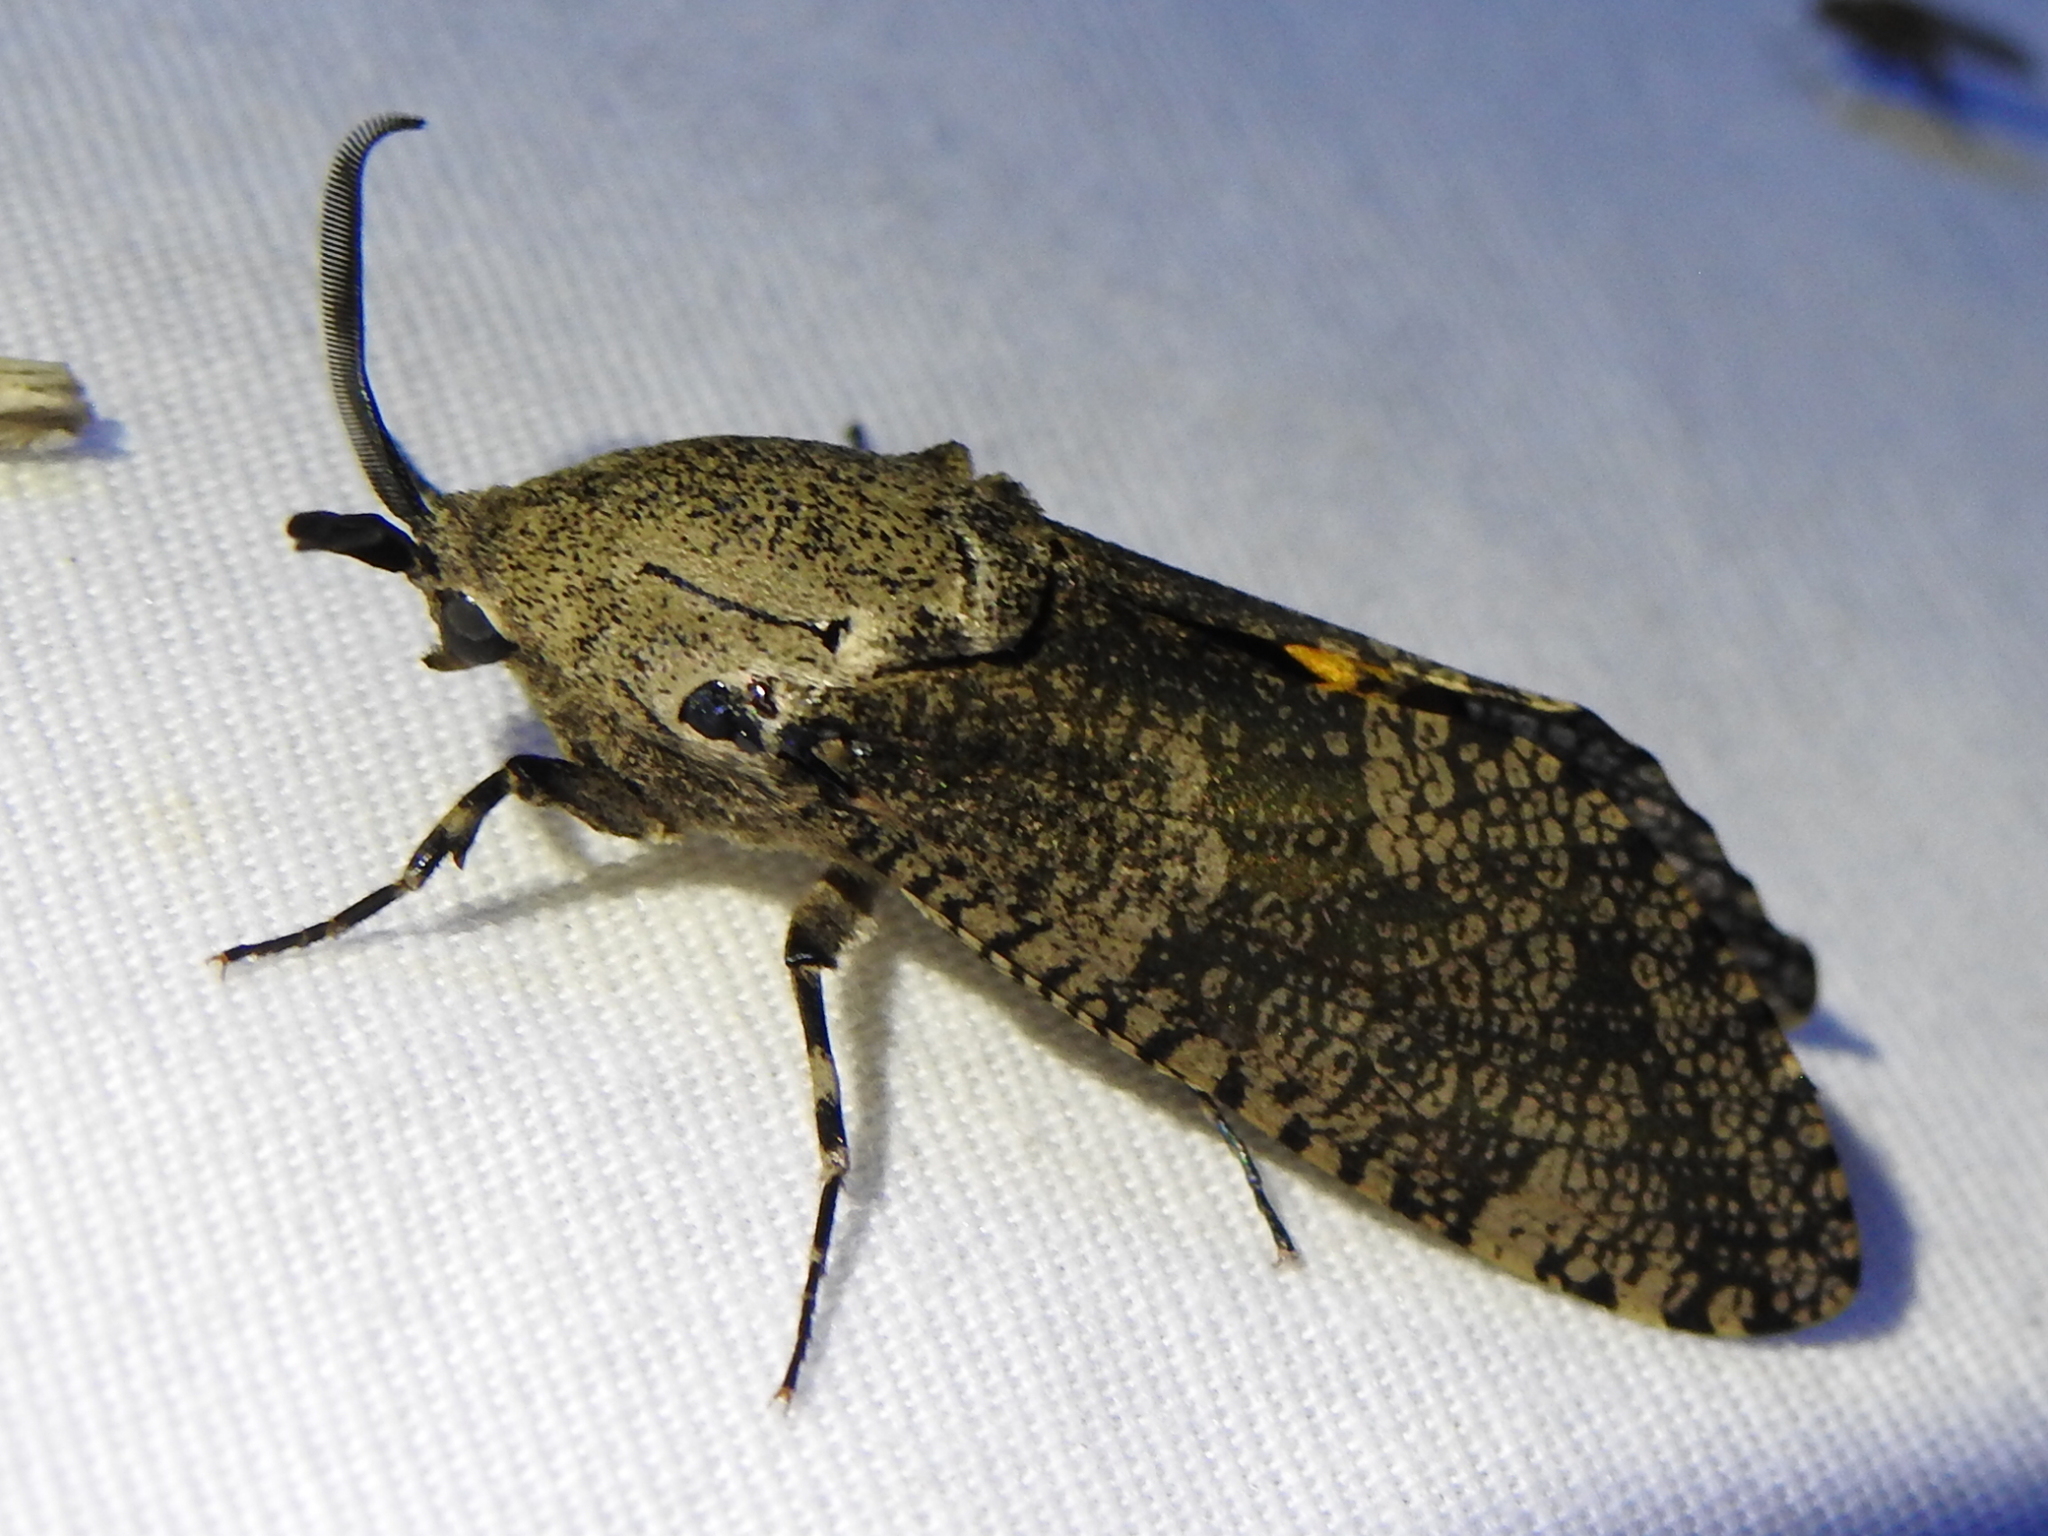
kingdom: Animalia
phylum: Arthropoda
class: Insecta
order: Lepidoptera
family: Cossidae
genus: Prionoxystus
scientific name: Prionoxystus robiniae
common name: Carpenterworm
